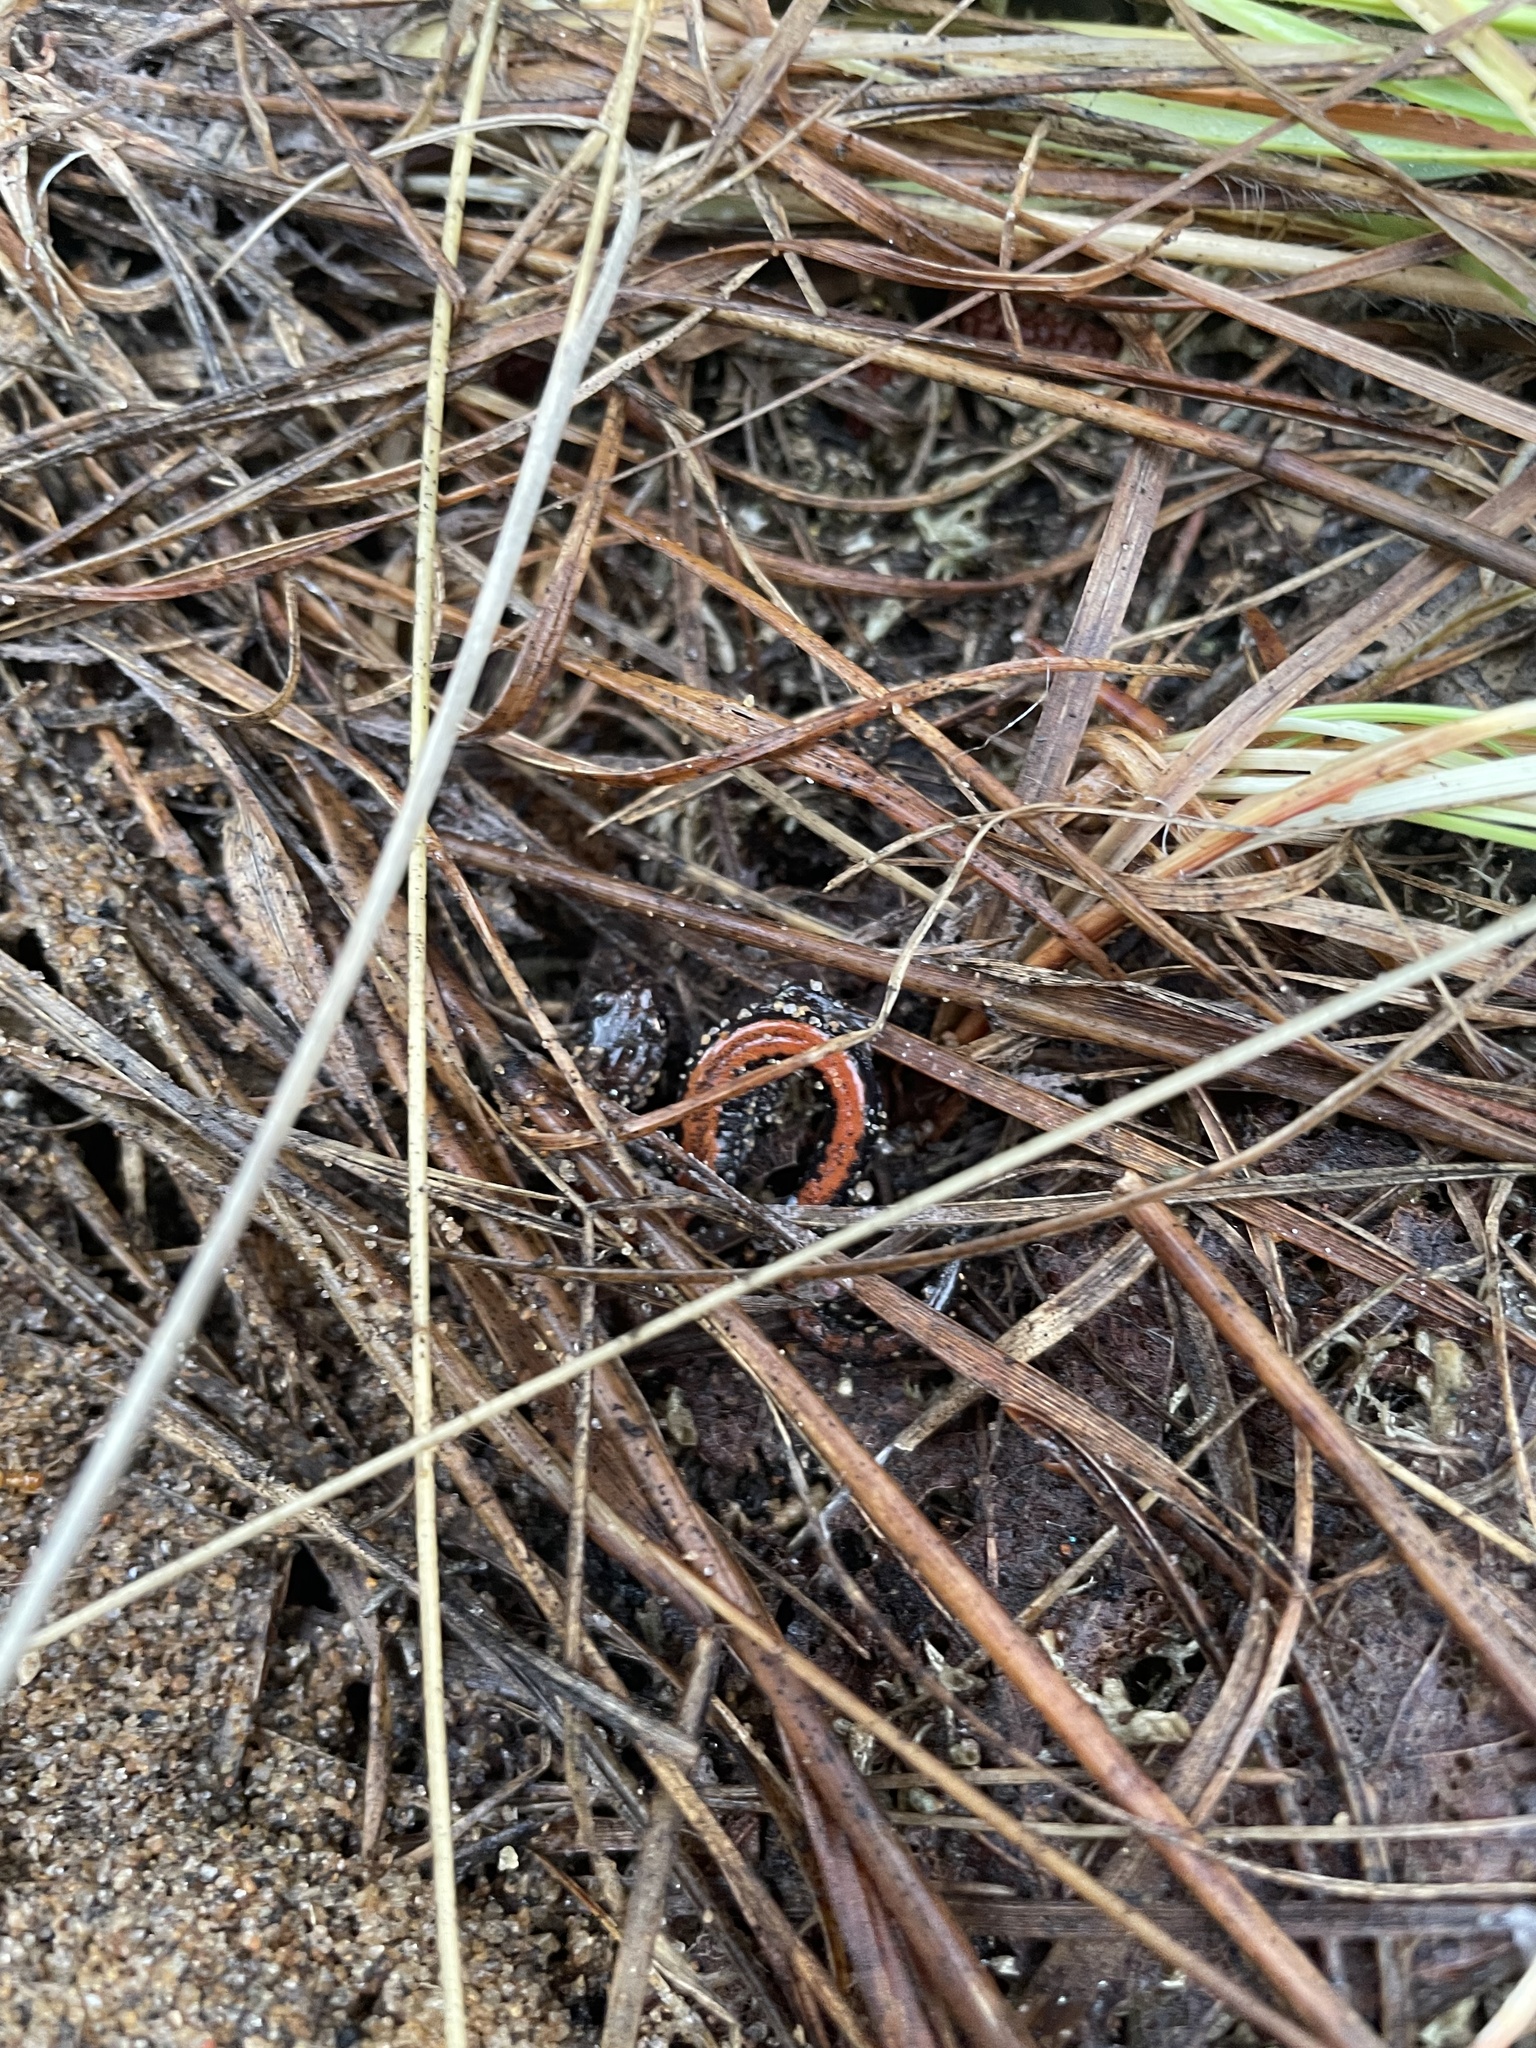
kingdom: Animalia
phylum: Chordata
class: Amphibia
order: Caudata
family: Plethodontidae
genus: Plethodon
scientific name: Plethodon cinereus
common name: Redback salamander
